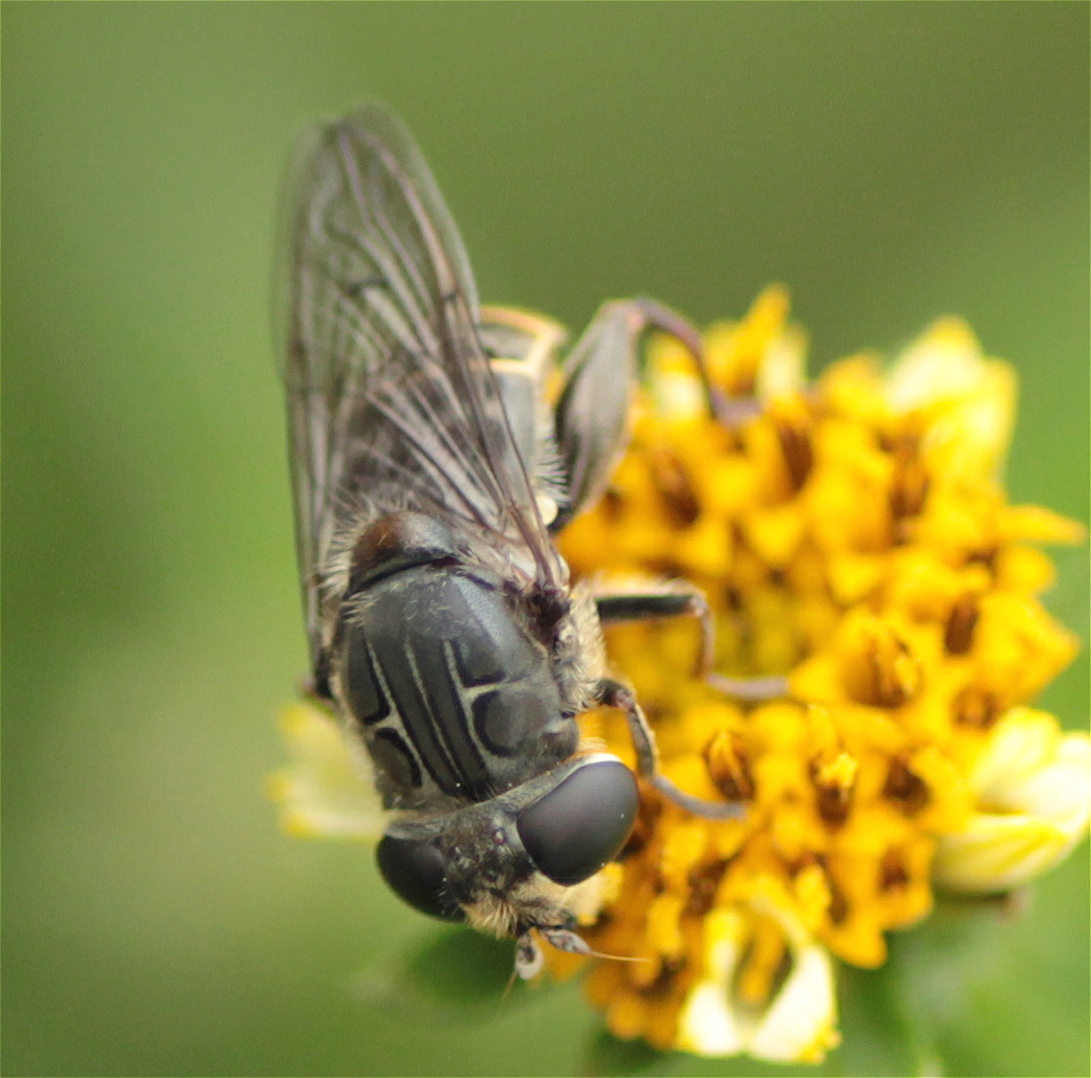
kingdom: Animalia
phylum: Arthropoda
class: Insecta
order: Diptera
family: Syrphidae
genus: Asemosyrphus
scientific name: Asemosyrphus
